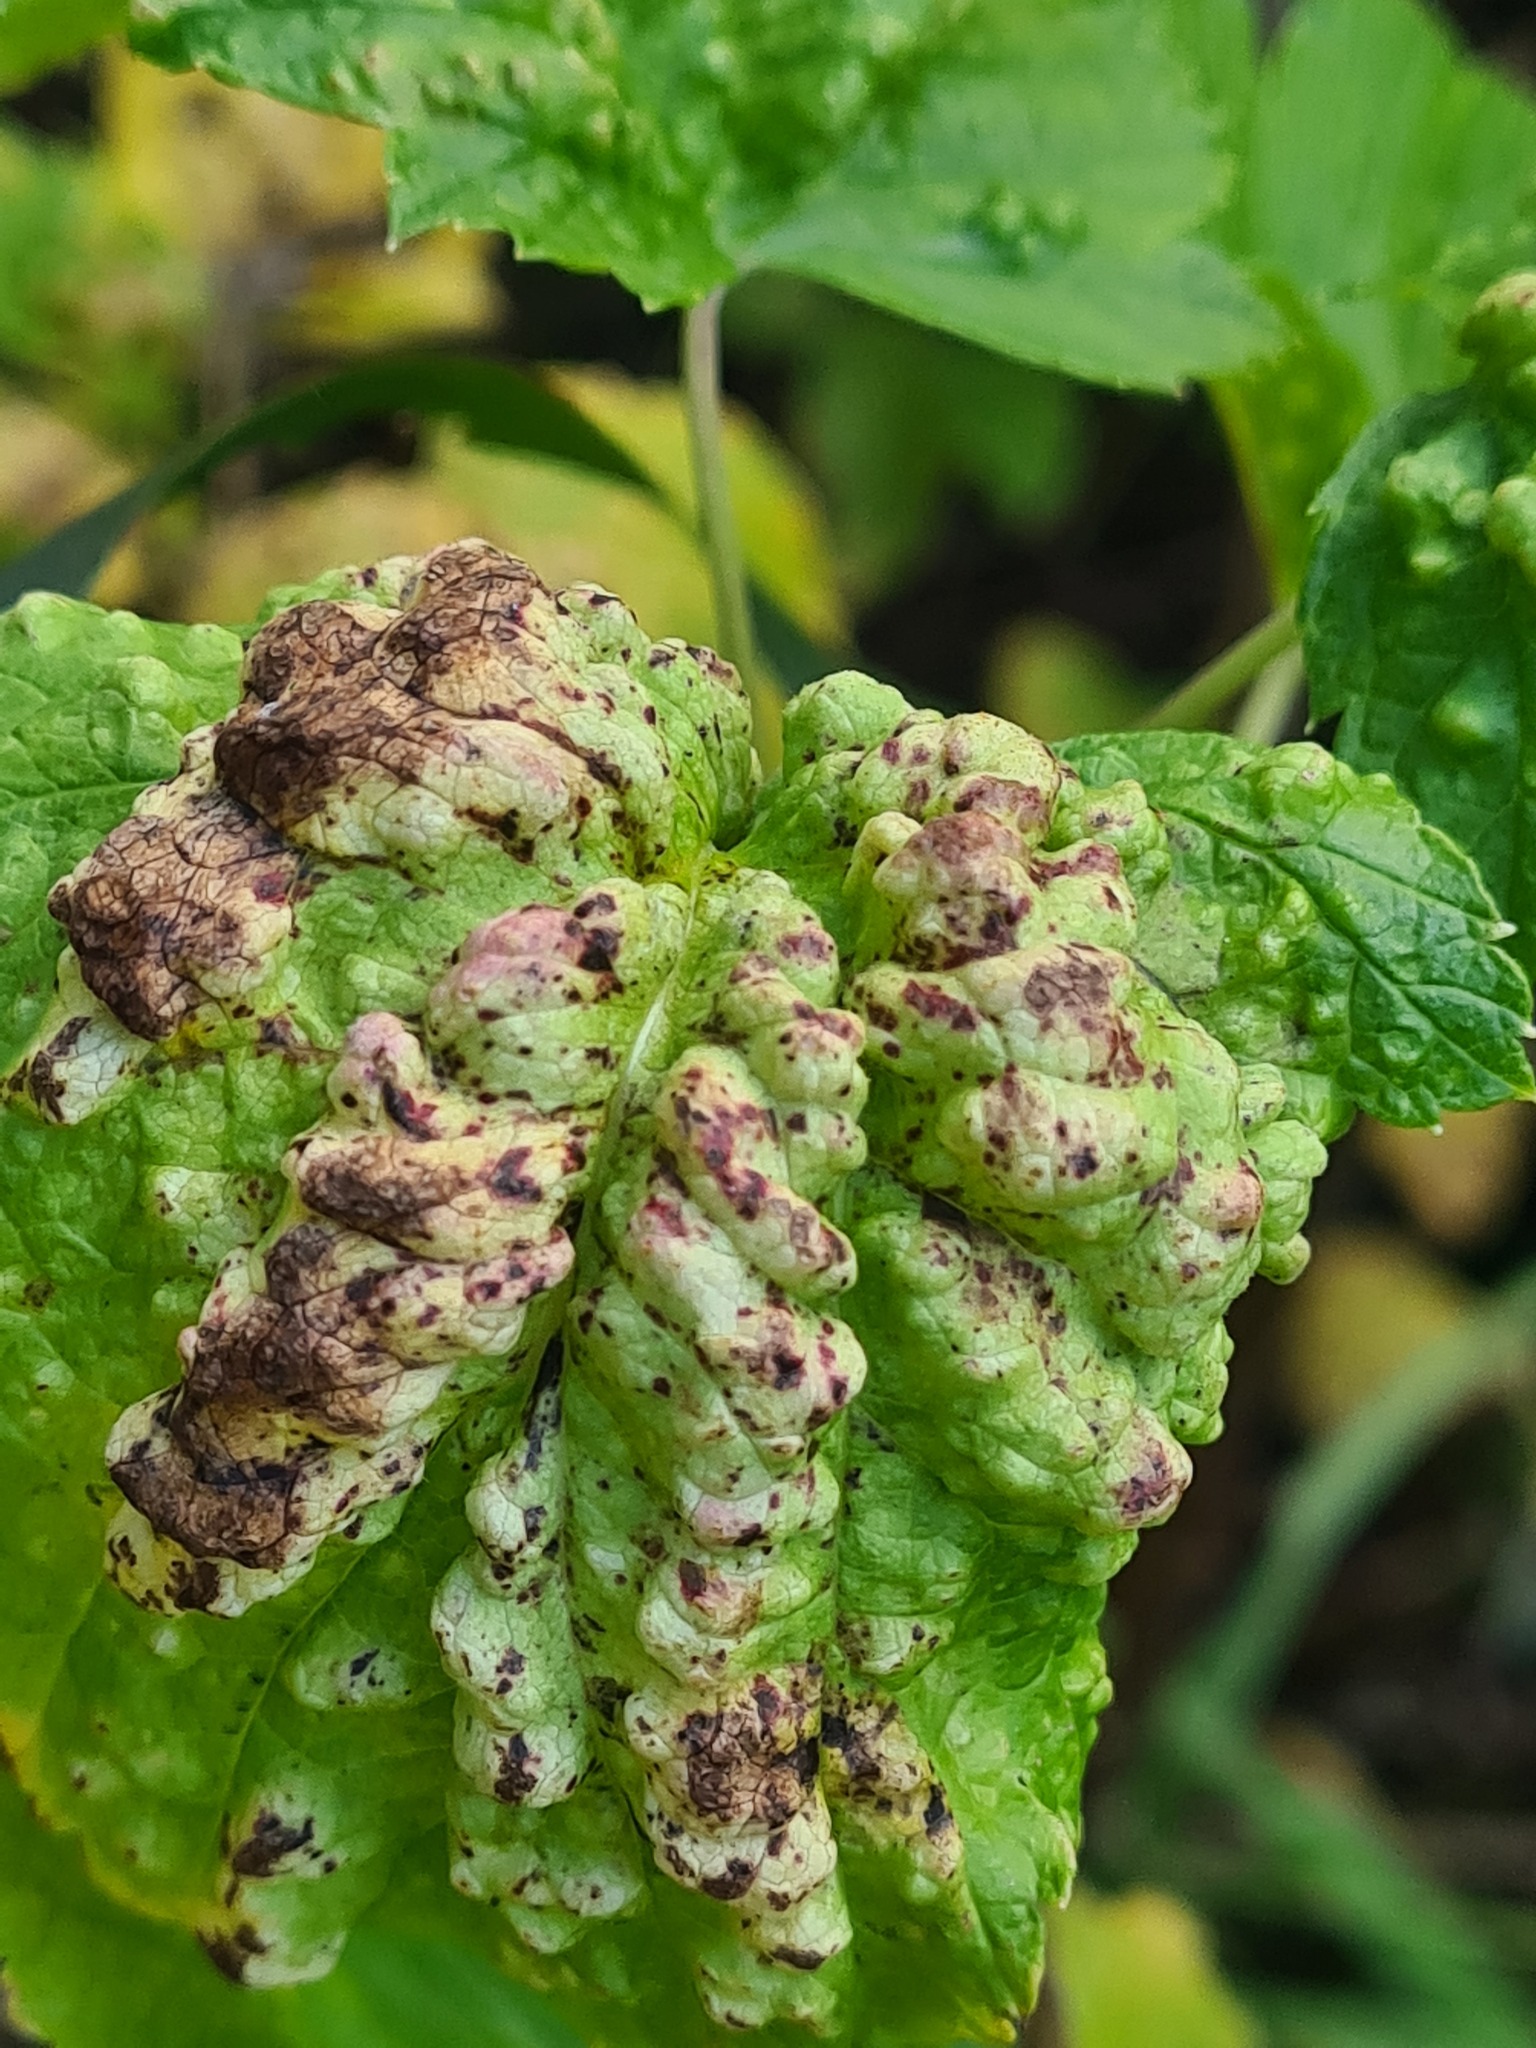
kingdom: Animalia
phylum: Arthropoda
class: Insecta
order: Hemiptera
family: Aphididae
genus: Cryptomyzus
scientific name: Cryptomyzus galeopsidis
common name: Aphid
